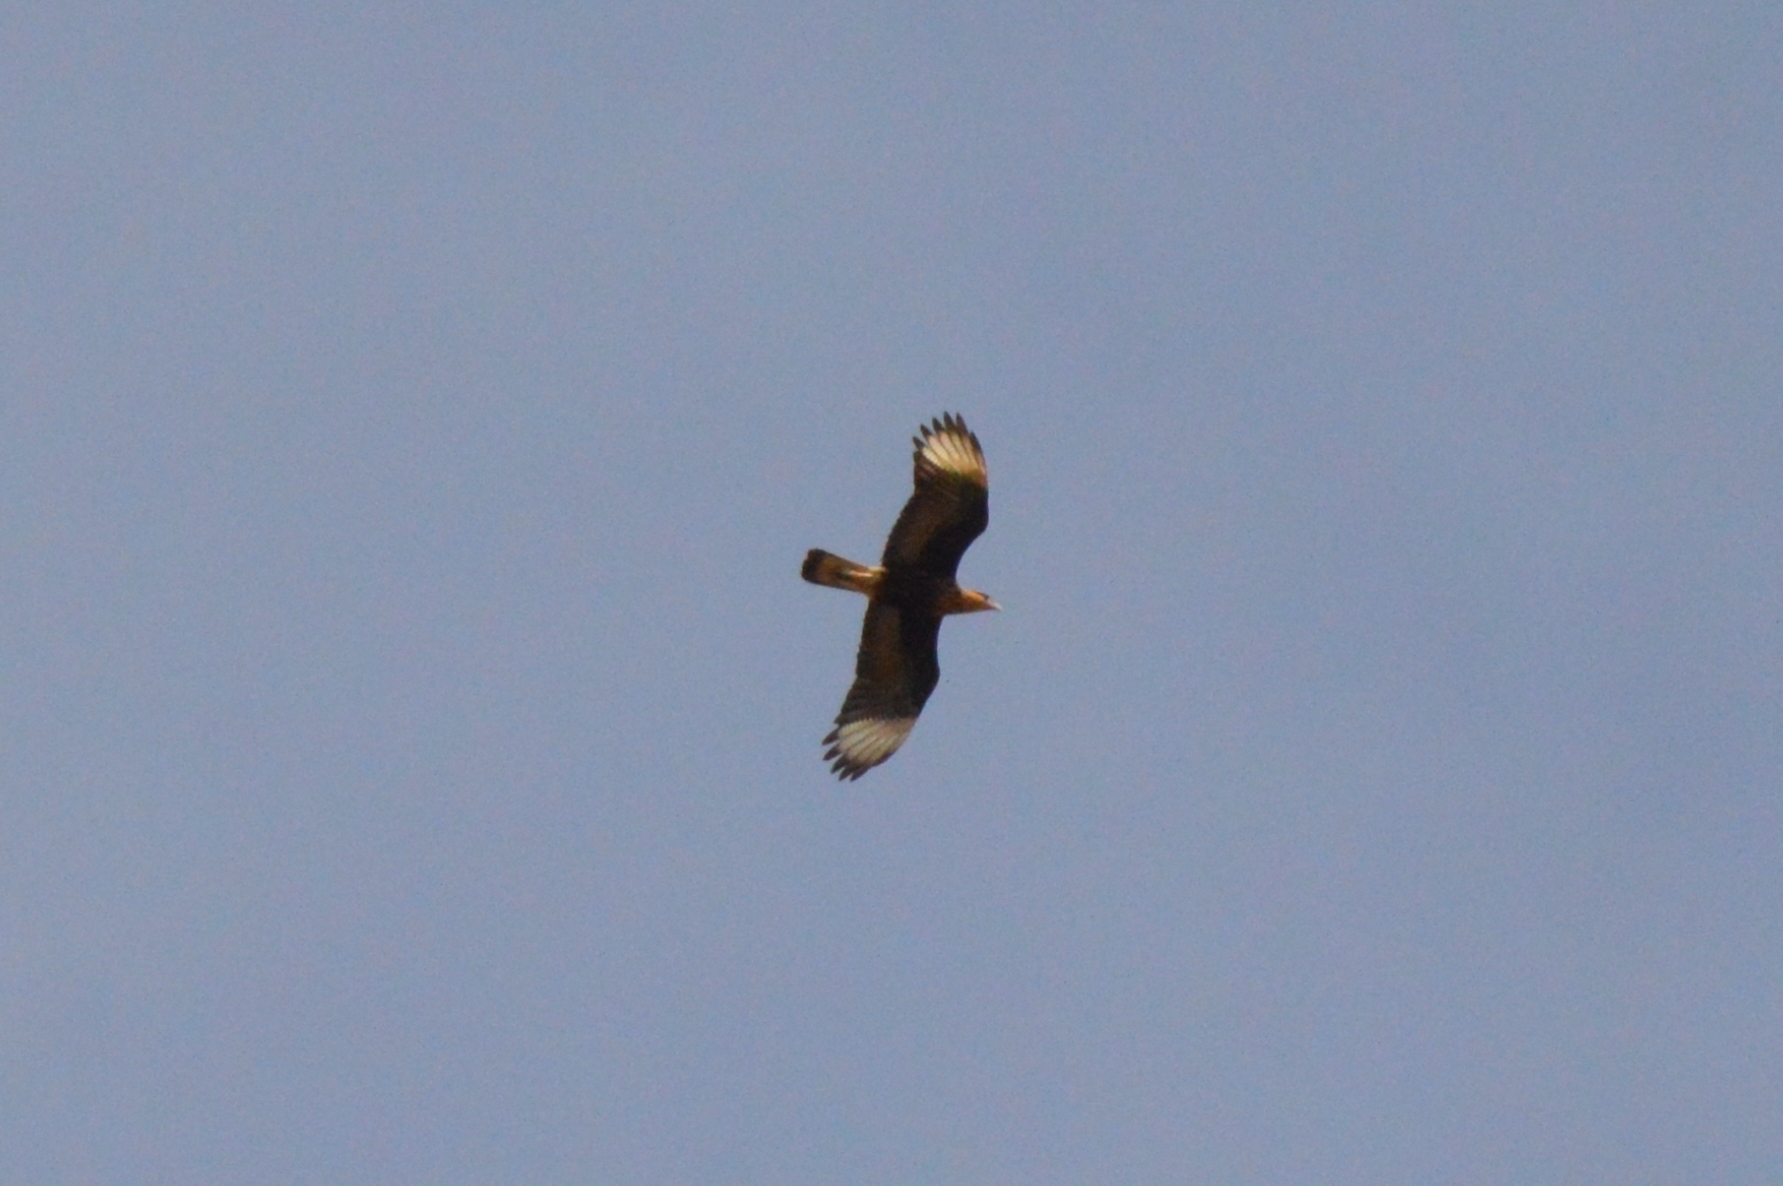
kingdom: Animalia
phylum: Chordata
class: Aves
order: Falconiformes
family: Falconidae
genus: Caracara
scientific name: Caracara plancus
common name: Southern caracara
